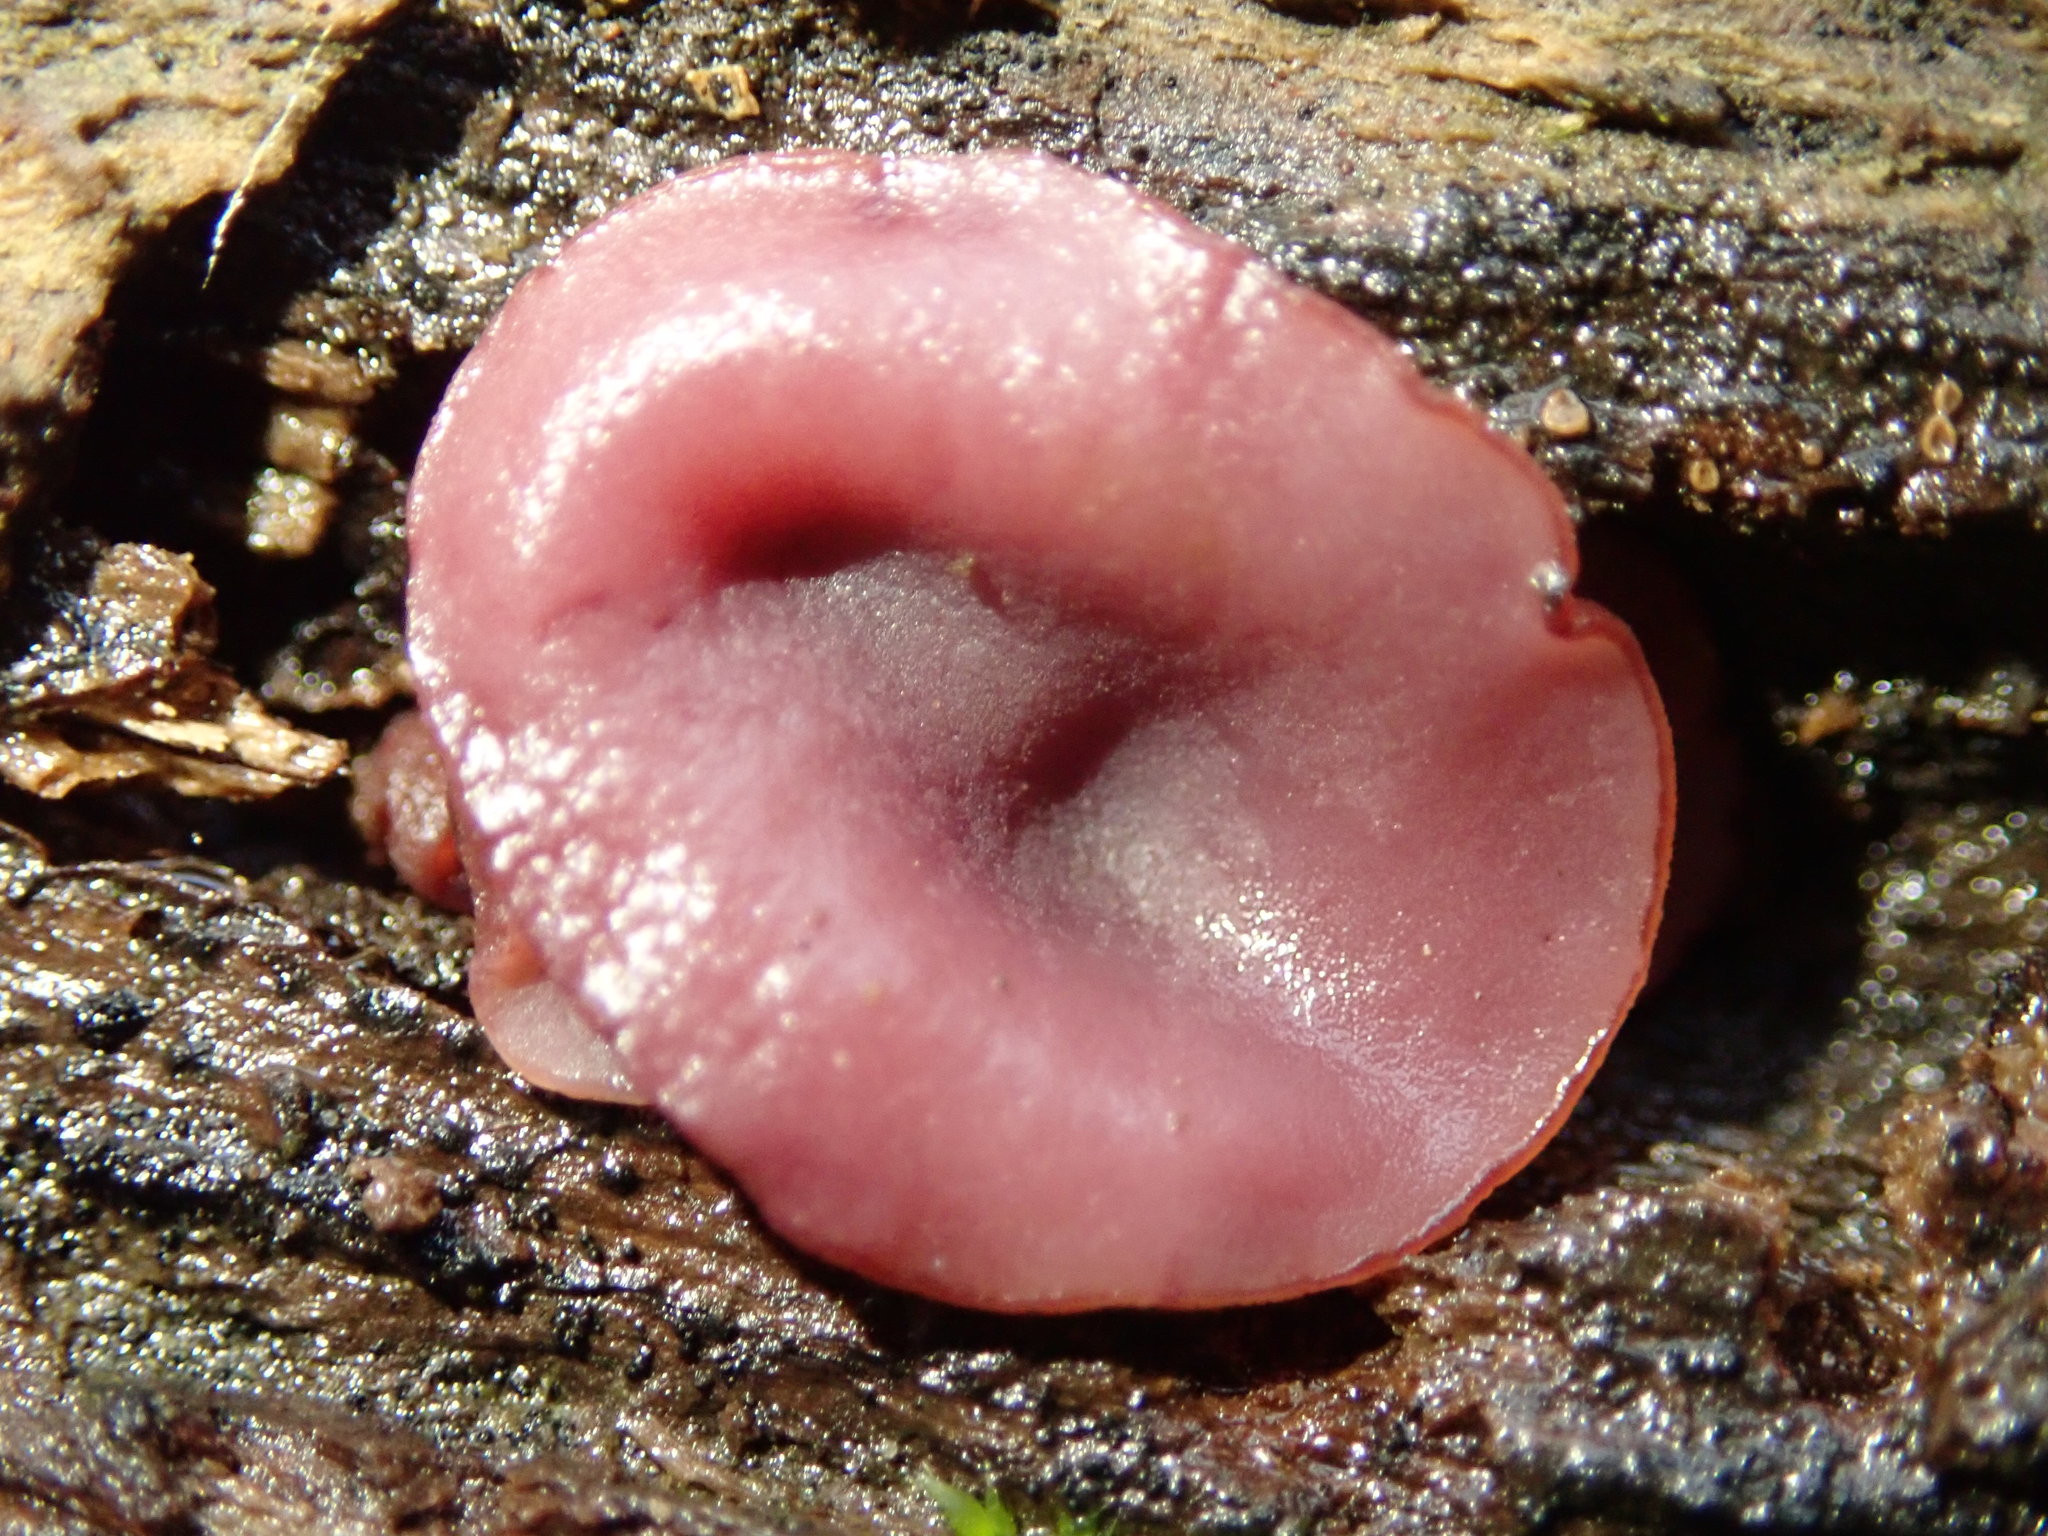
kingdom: Fungi
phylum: Ascomycota
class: Leotiomycetes
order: Helotiales
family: Gelatinodiscaceae
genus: Ascocoryne
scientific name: Ascocoryne sarcoides
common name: Purple jellydisc
